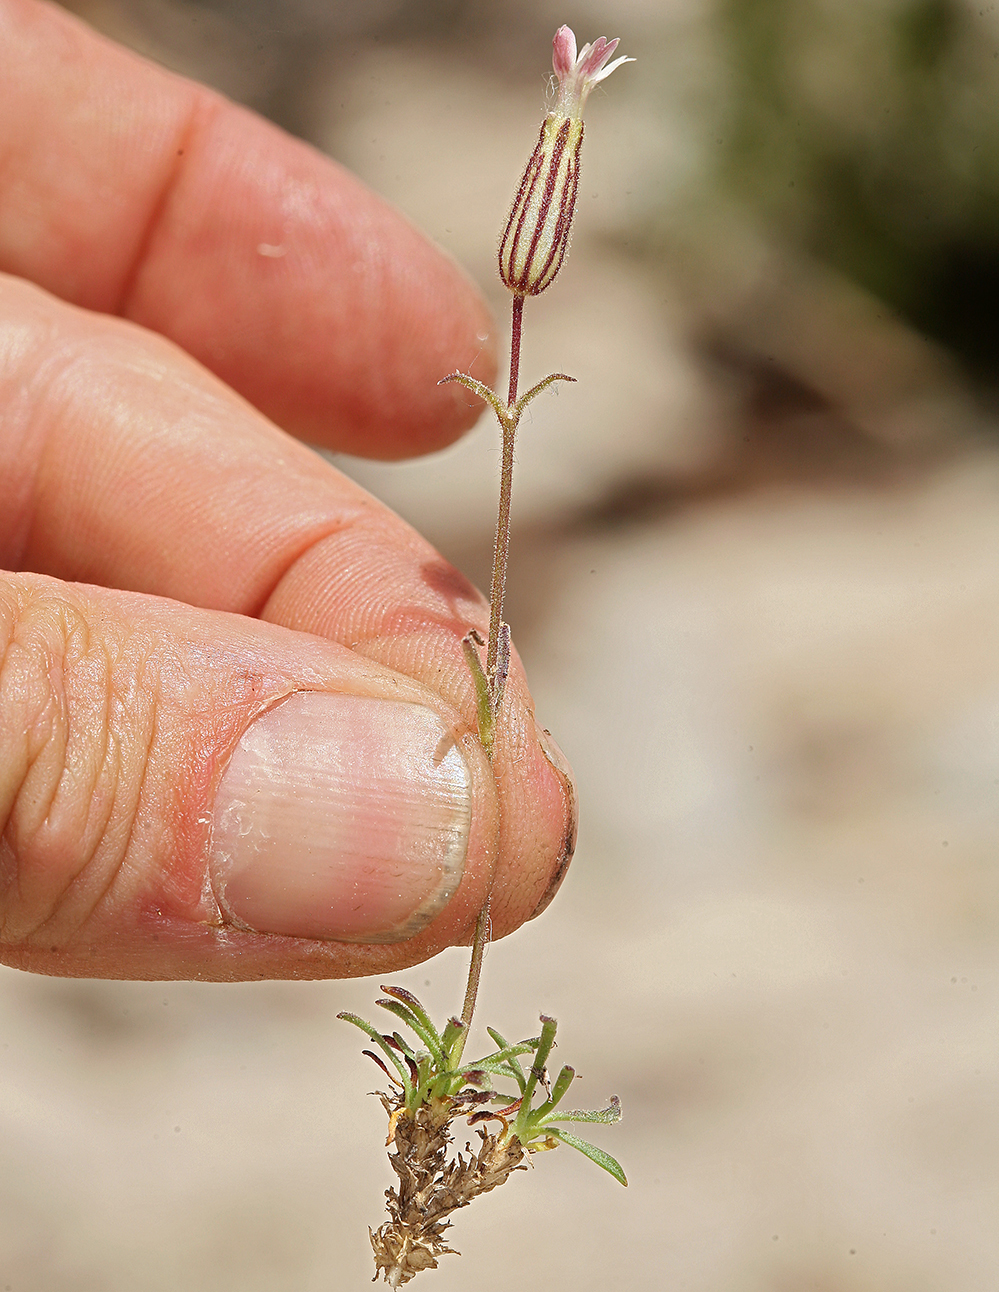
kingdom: Plantae
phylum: Tracheophyta
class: Magnoliopsida
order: Caryophyllales
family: Caryophyllaceae
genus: Silene
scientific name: Silene sargentii
